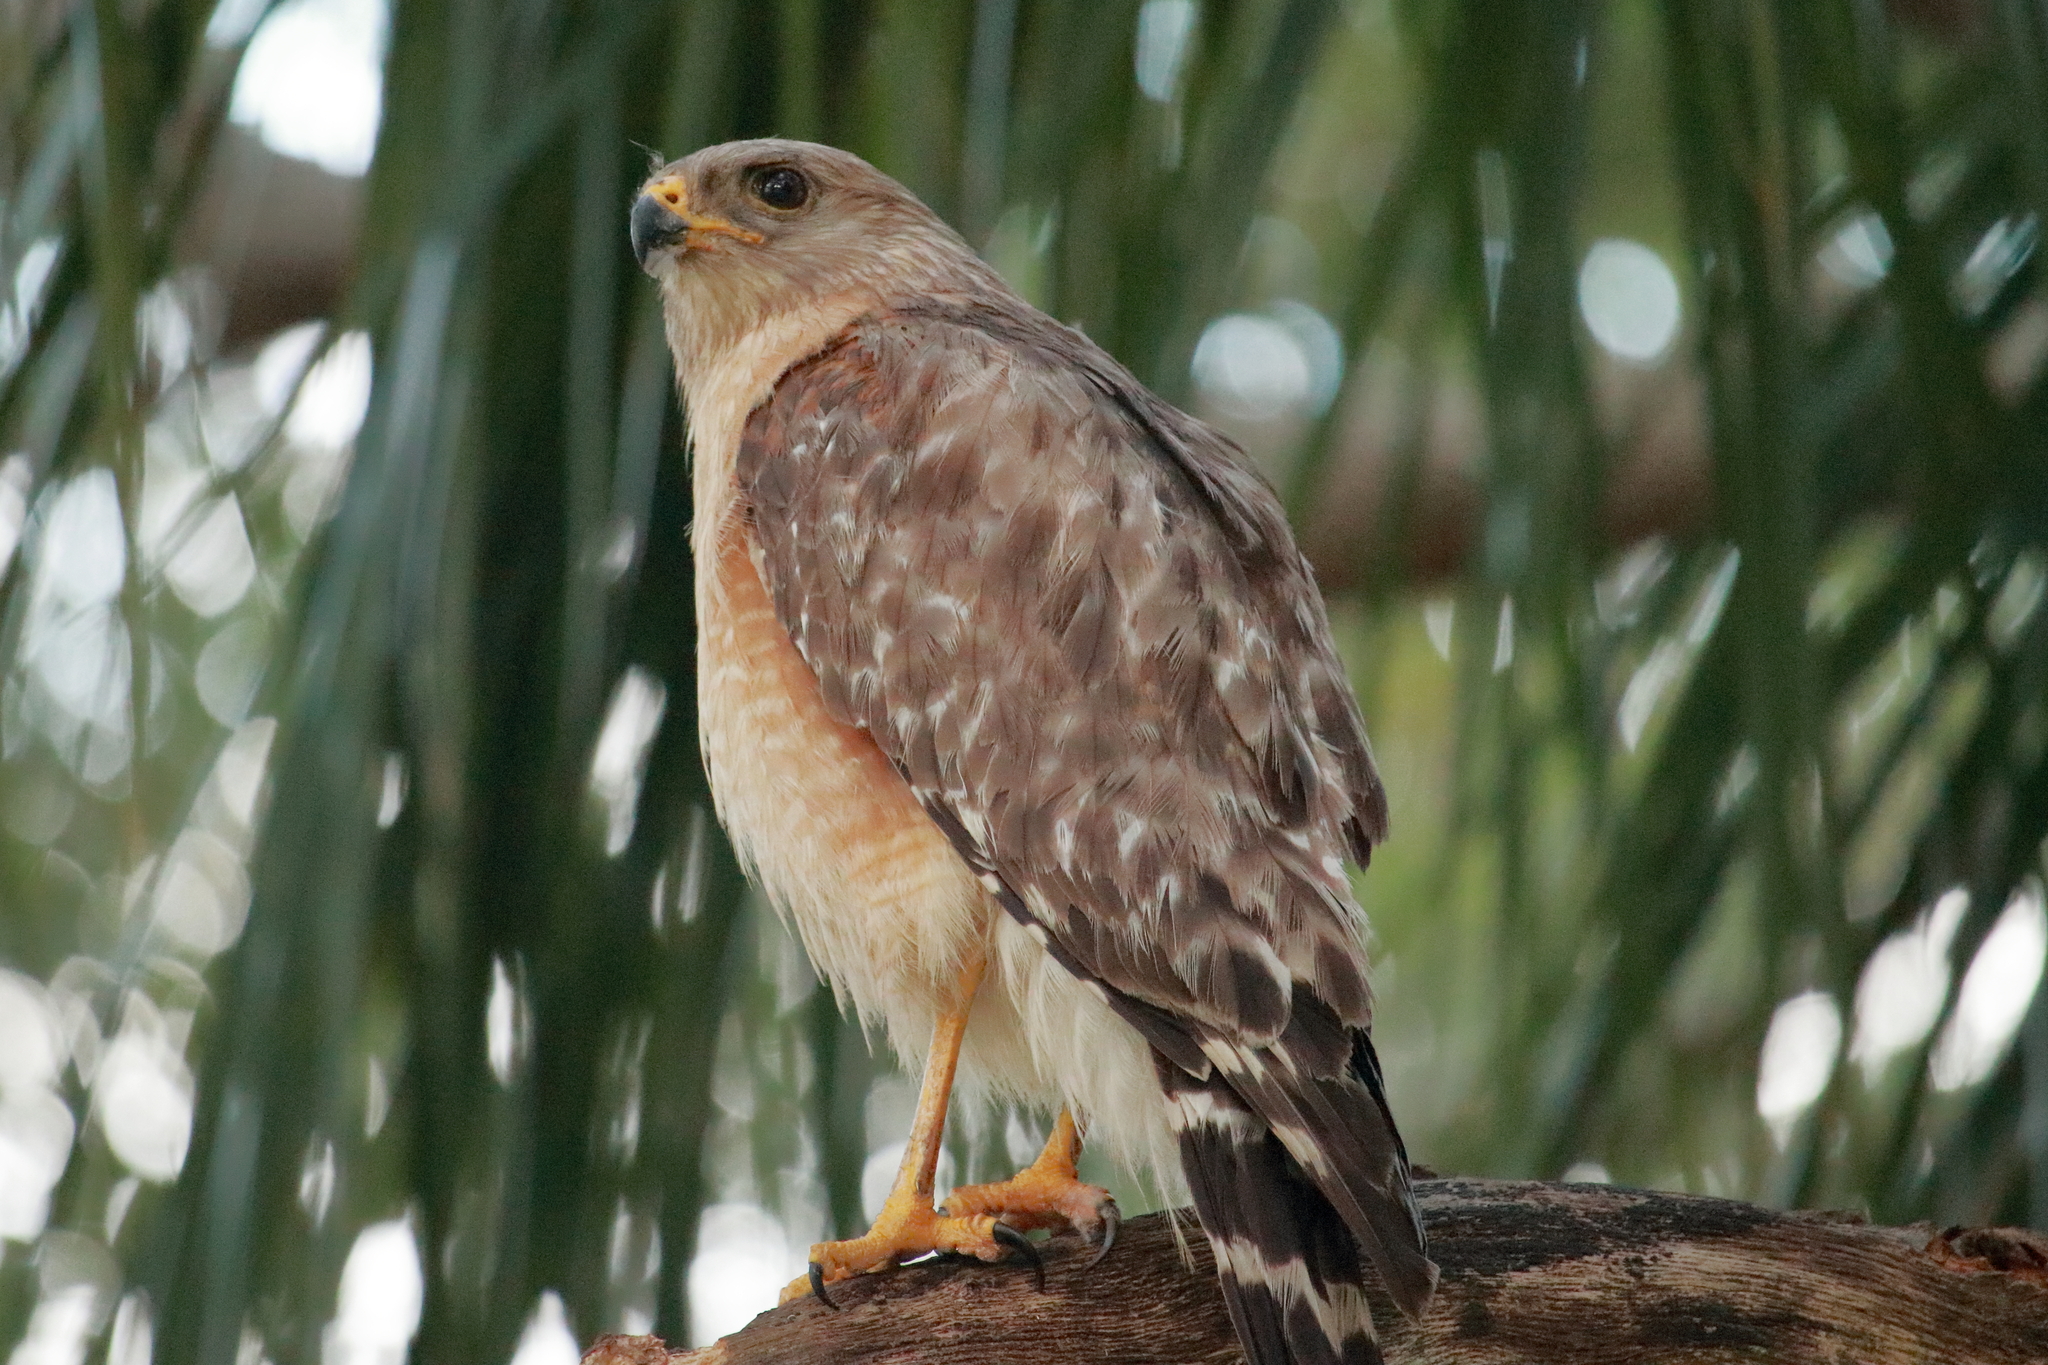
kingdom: Animalia
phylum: Chordata
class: Aves
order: Accipitriformes
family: Accipitridae
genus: Buteo
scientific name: Buteo lineatus
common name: Red-shouldered hawk
